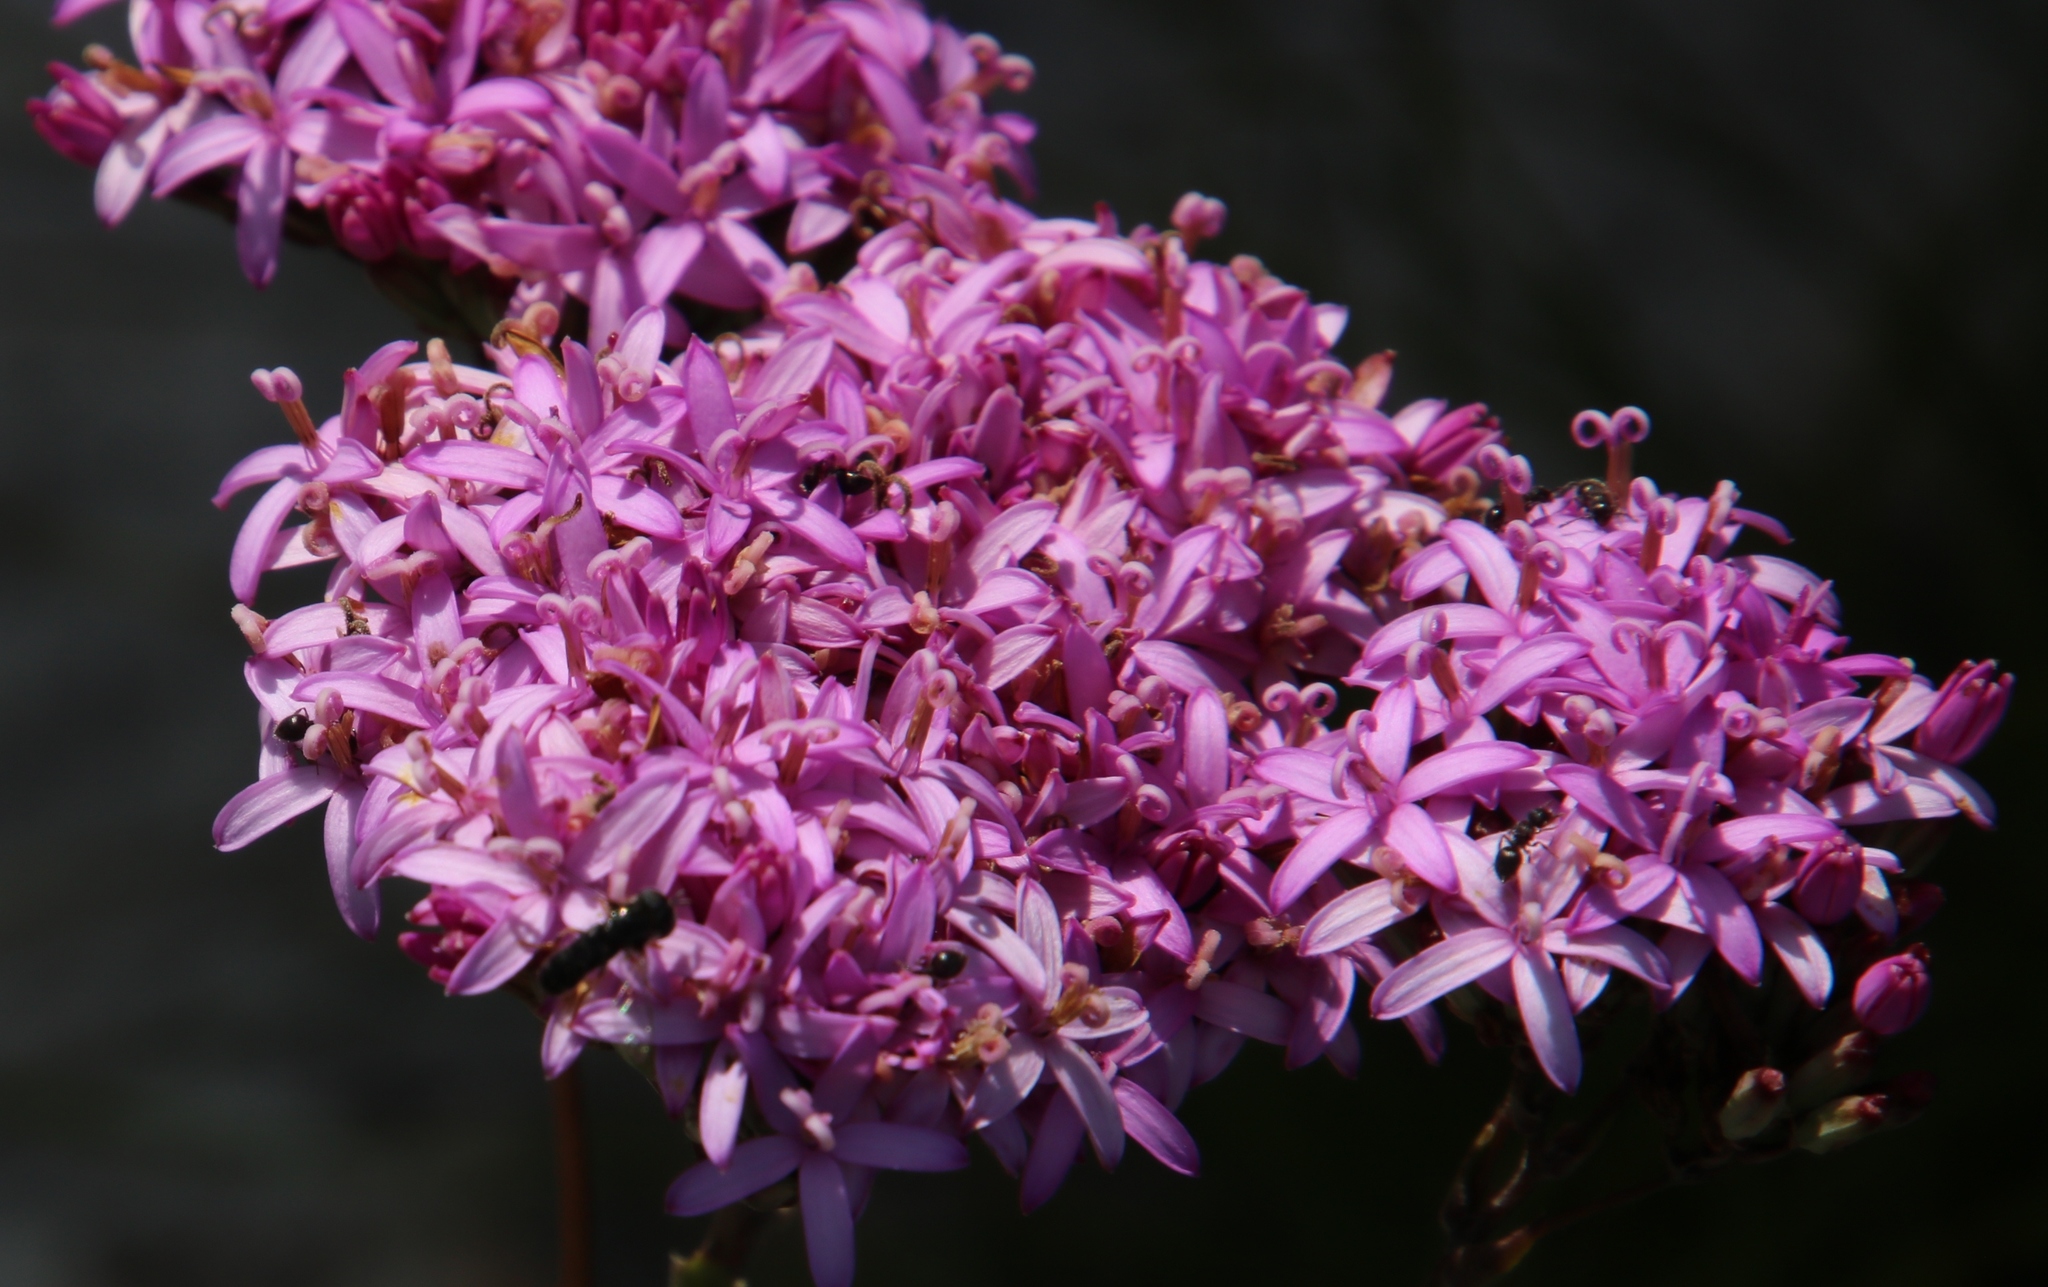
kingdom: Plantae
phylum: Tracheophyta
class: Magnoliopsida
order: Asterales
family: Asteraceae
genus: Corymbium
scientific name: Corymbium glabrum
